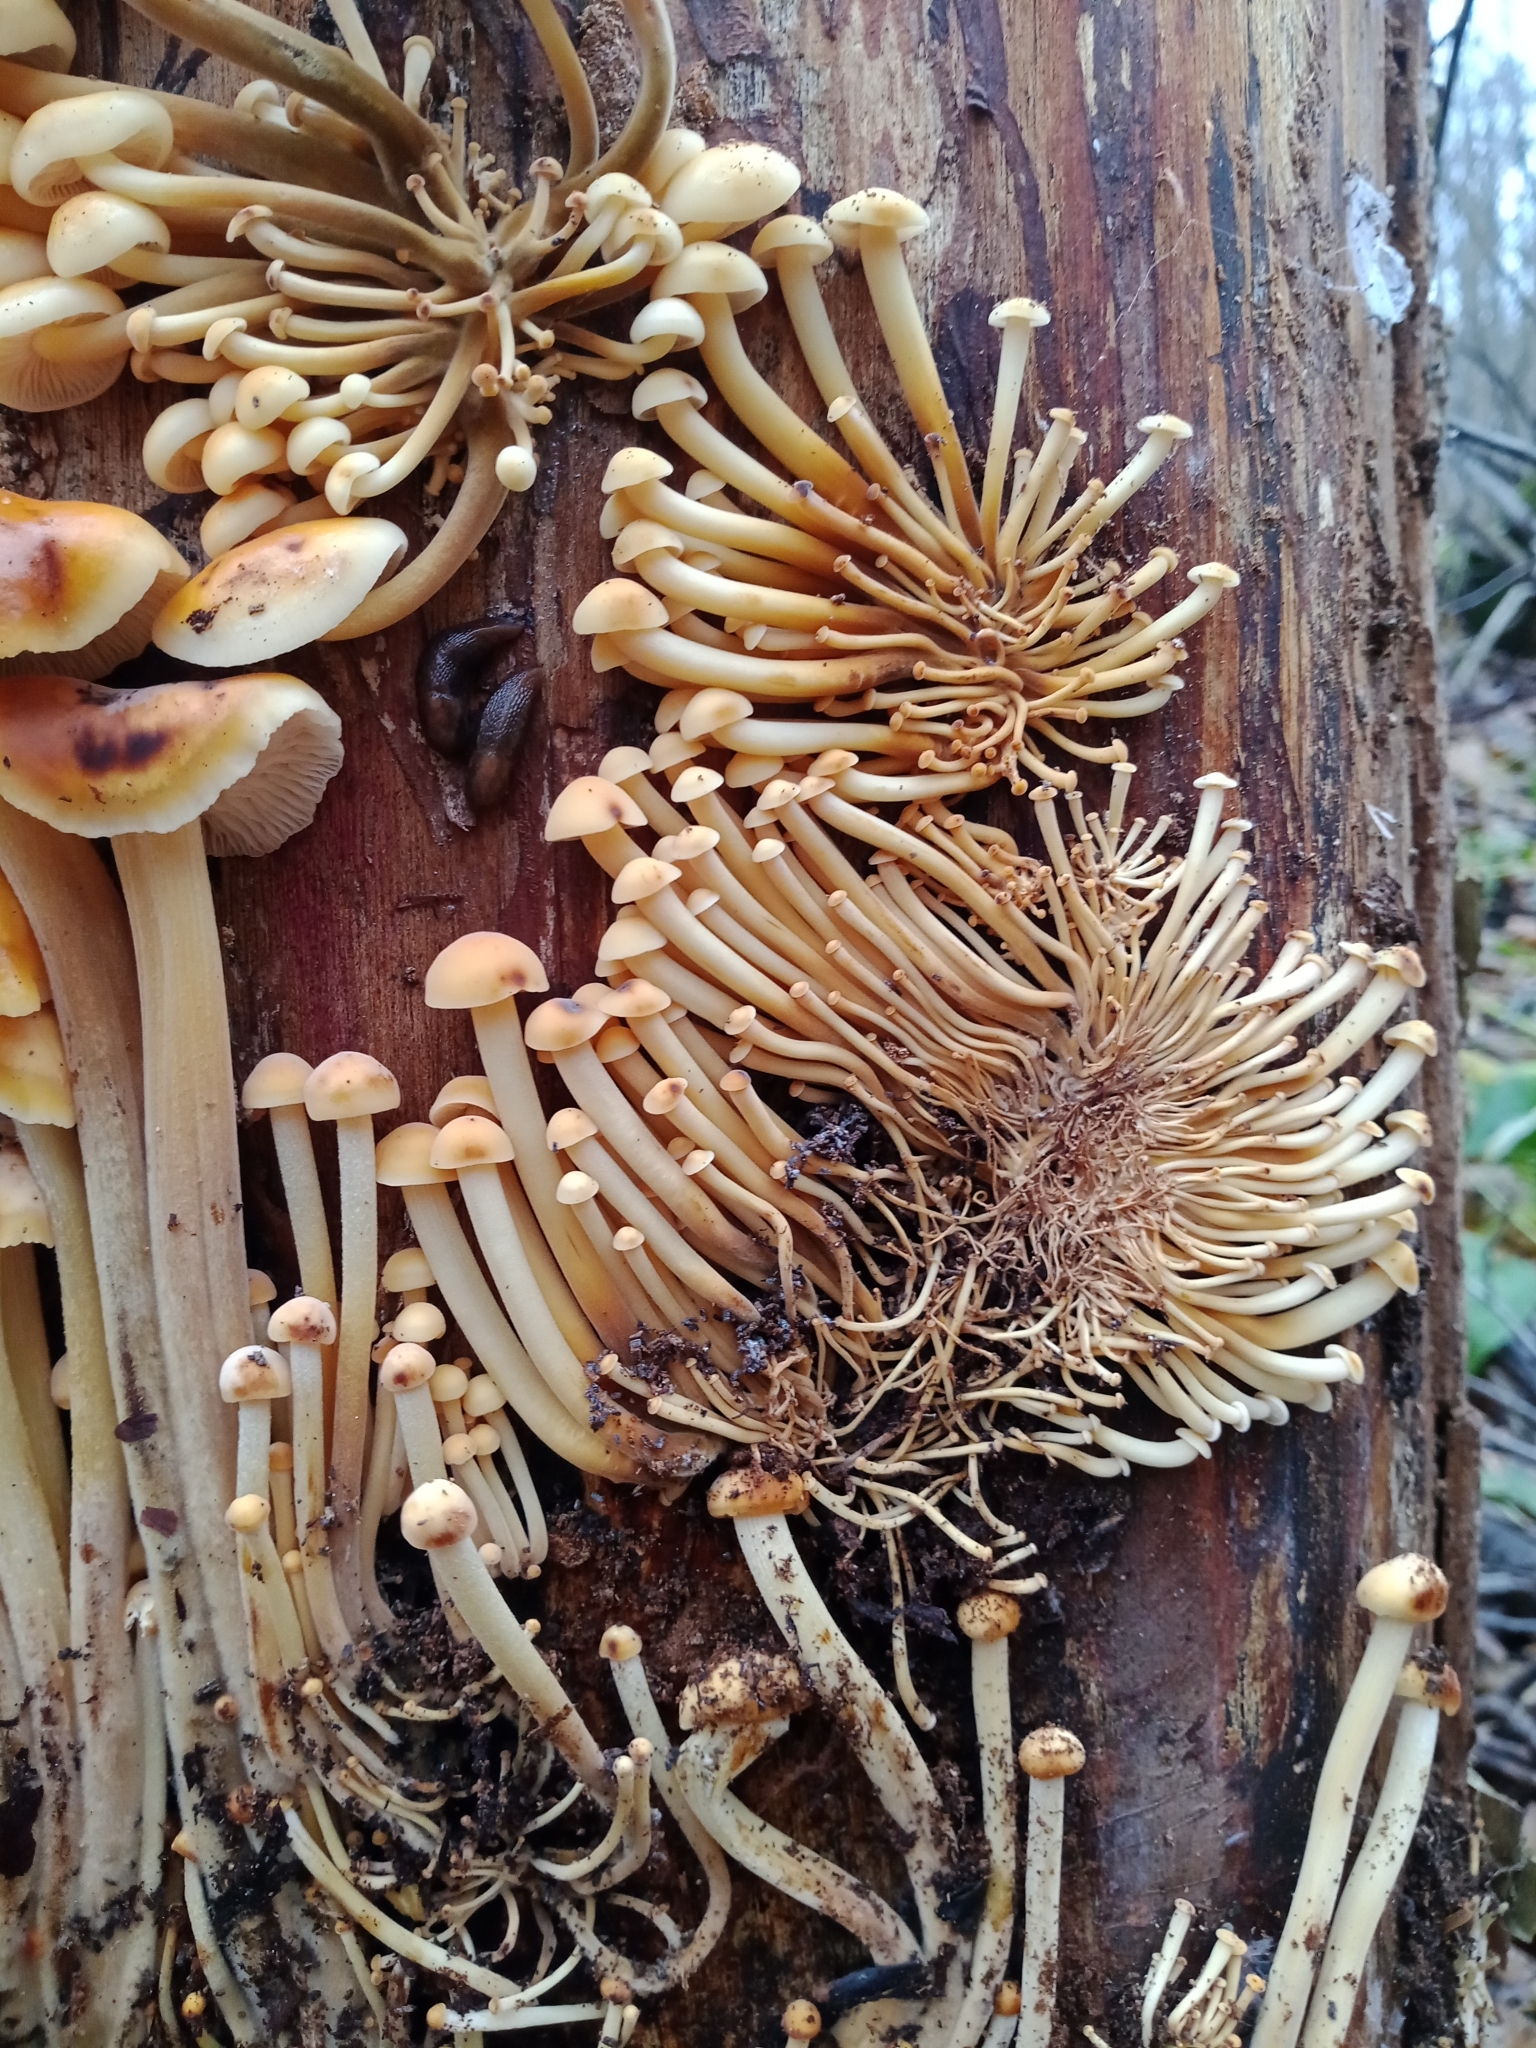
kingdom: Fungi
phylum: Basidiomycota
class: Agaricomycetes
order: Agaricales
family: Physalacriaceae
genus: Flammulina
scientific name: Flammulina
